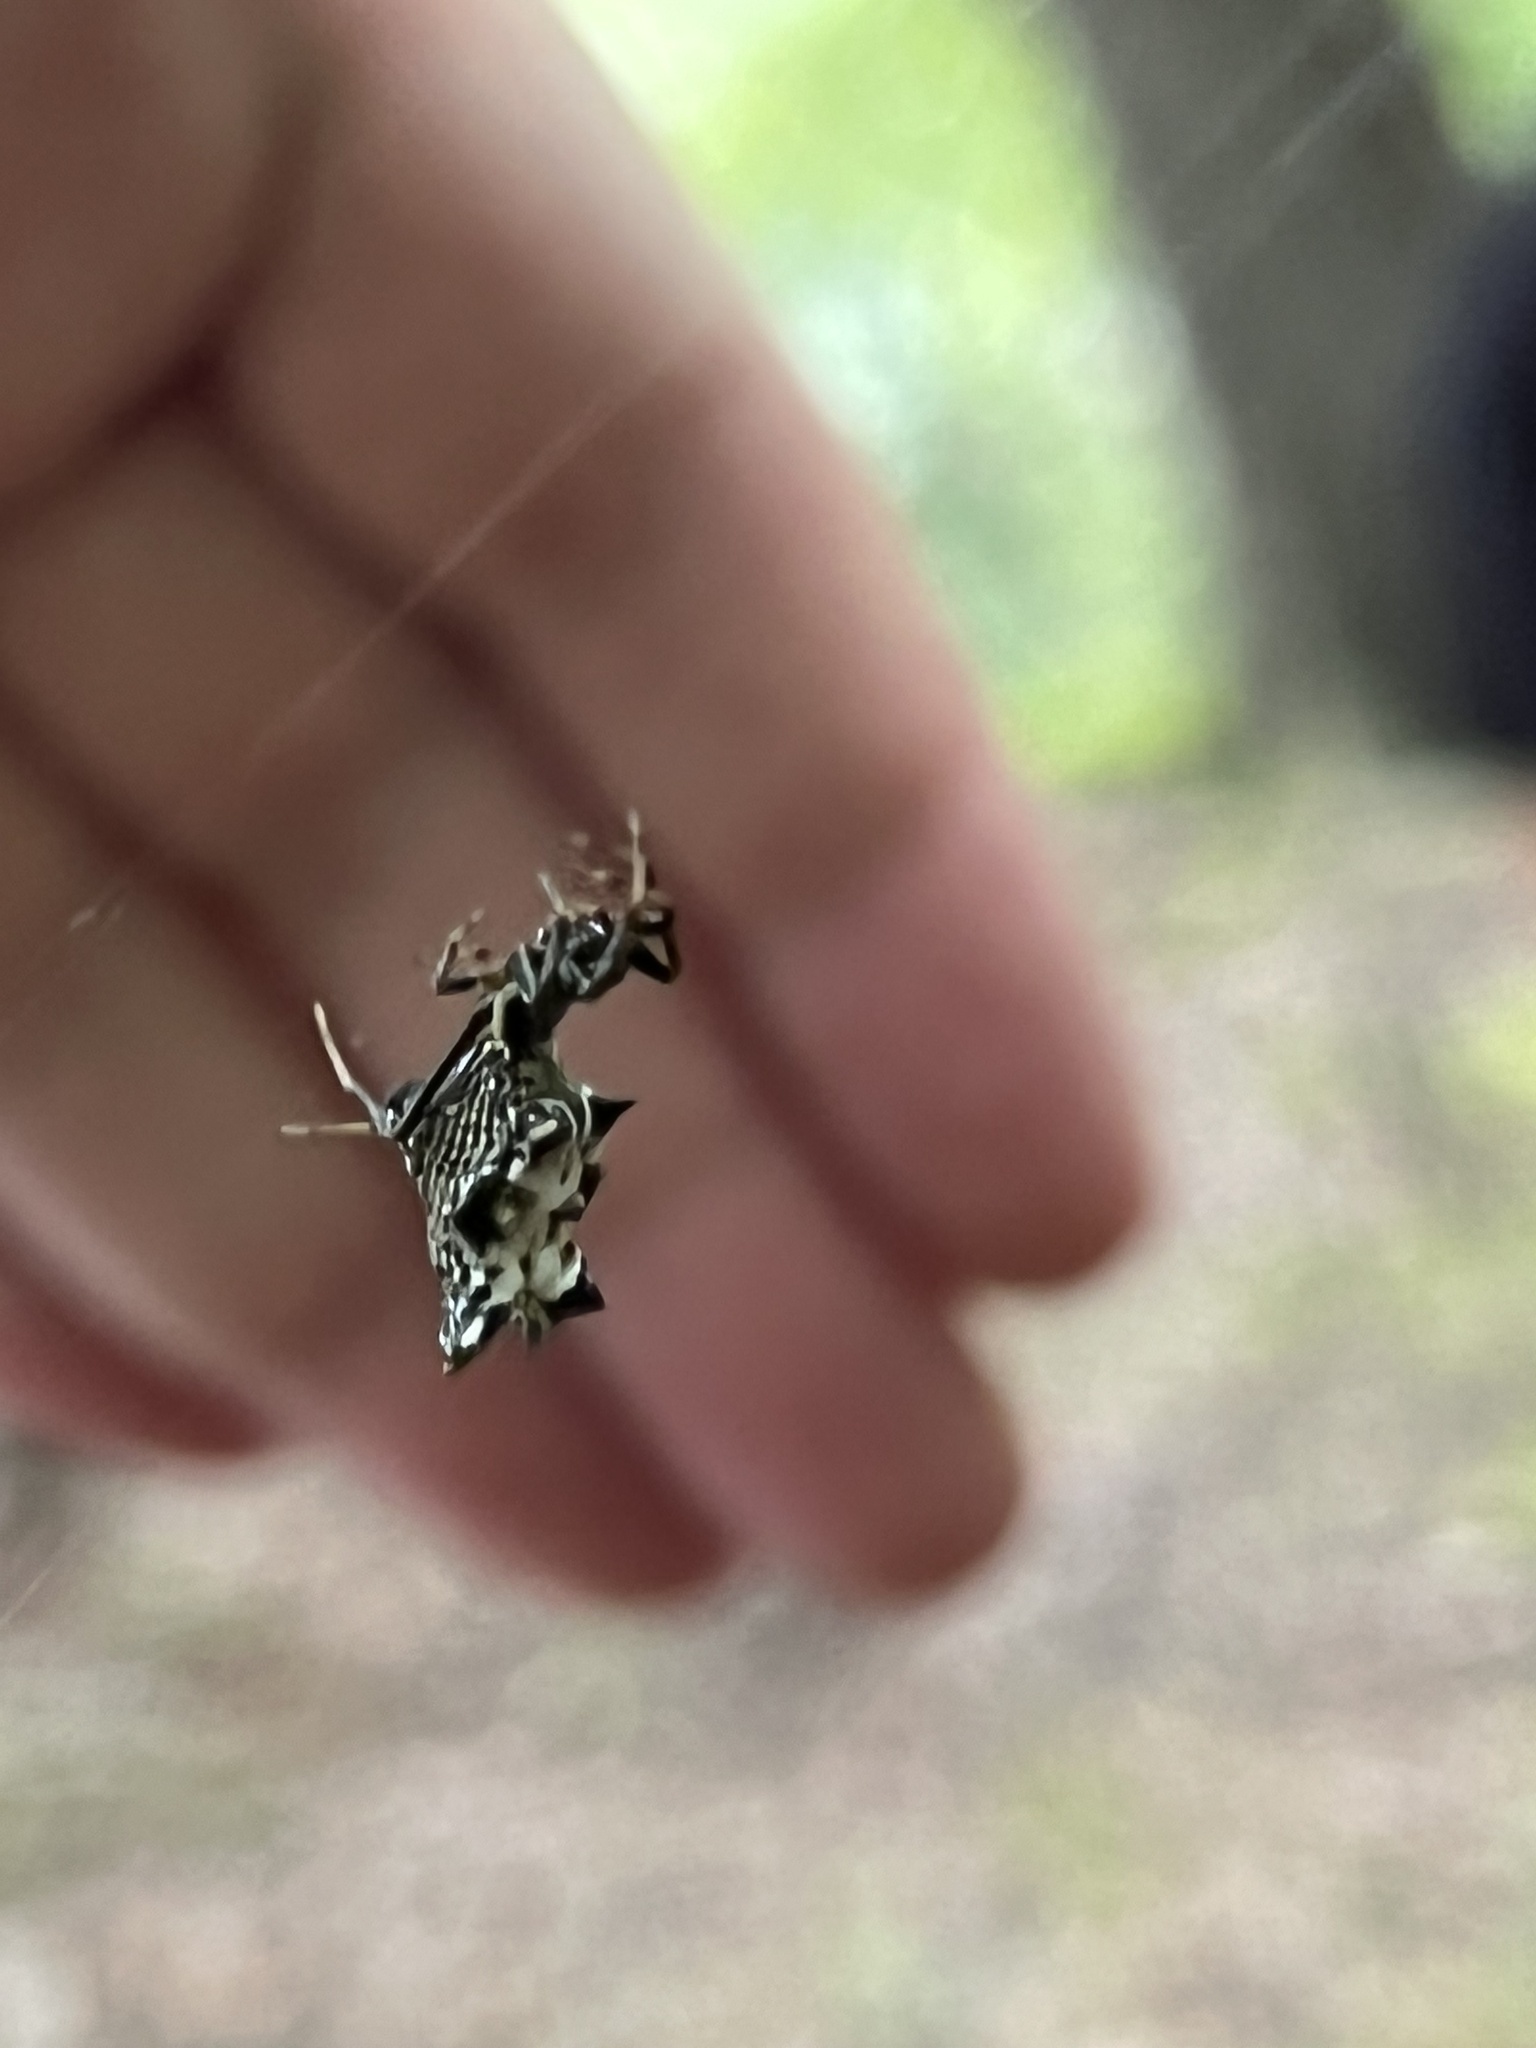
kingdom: Animalia
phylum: Arthropoda
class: Arachnida
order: Araneae
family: Araneidae
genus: Micrathena
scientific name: Micrathena gracilis
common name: Orb weavers
